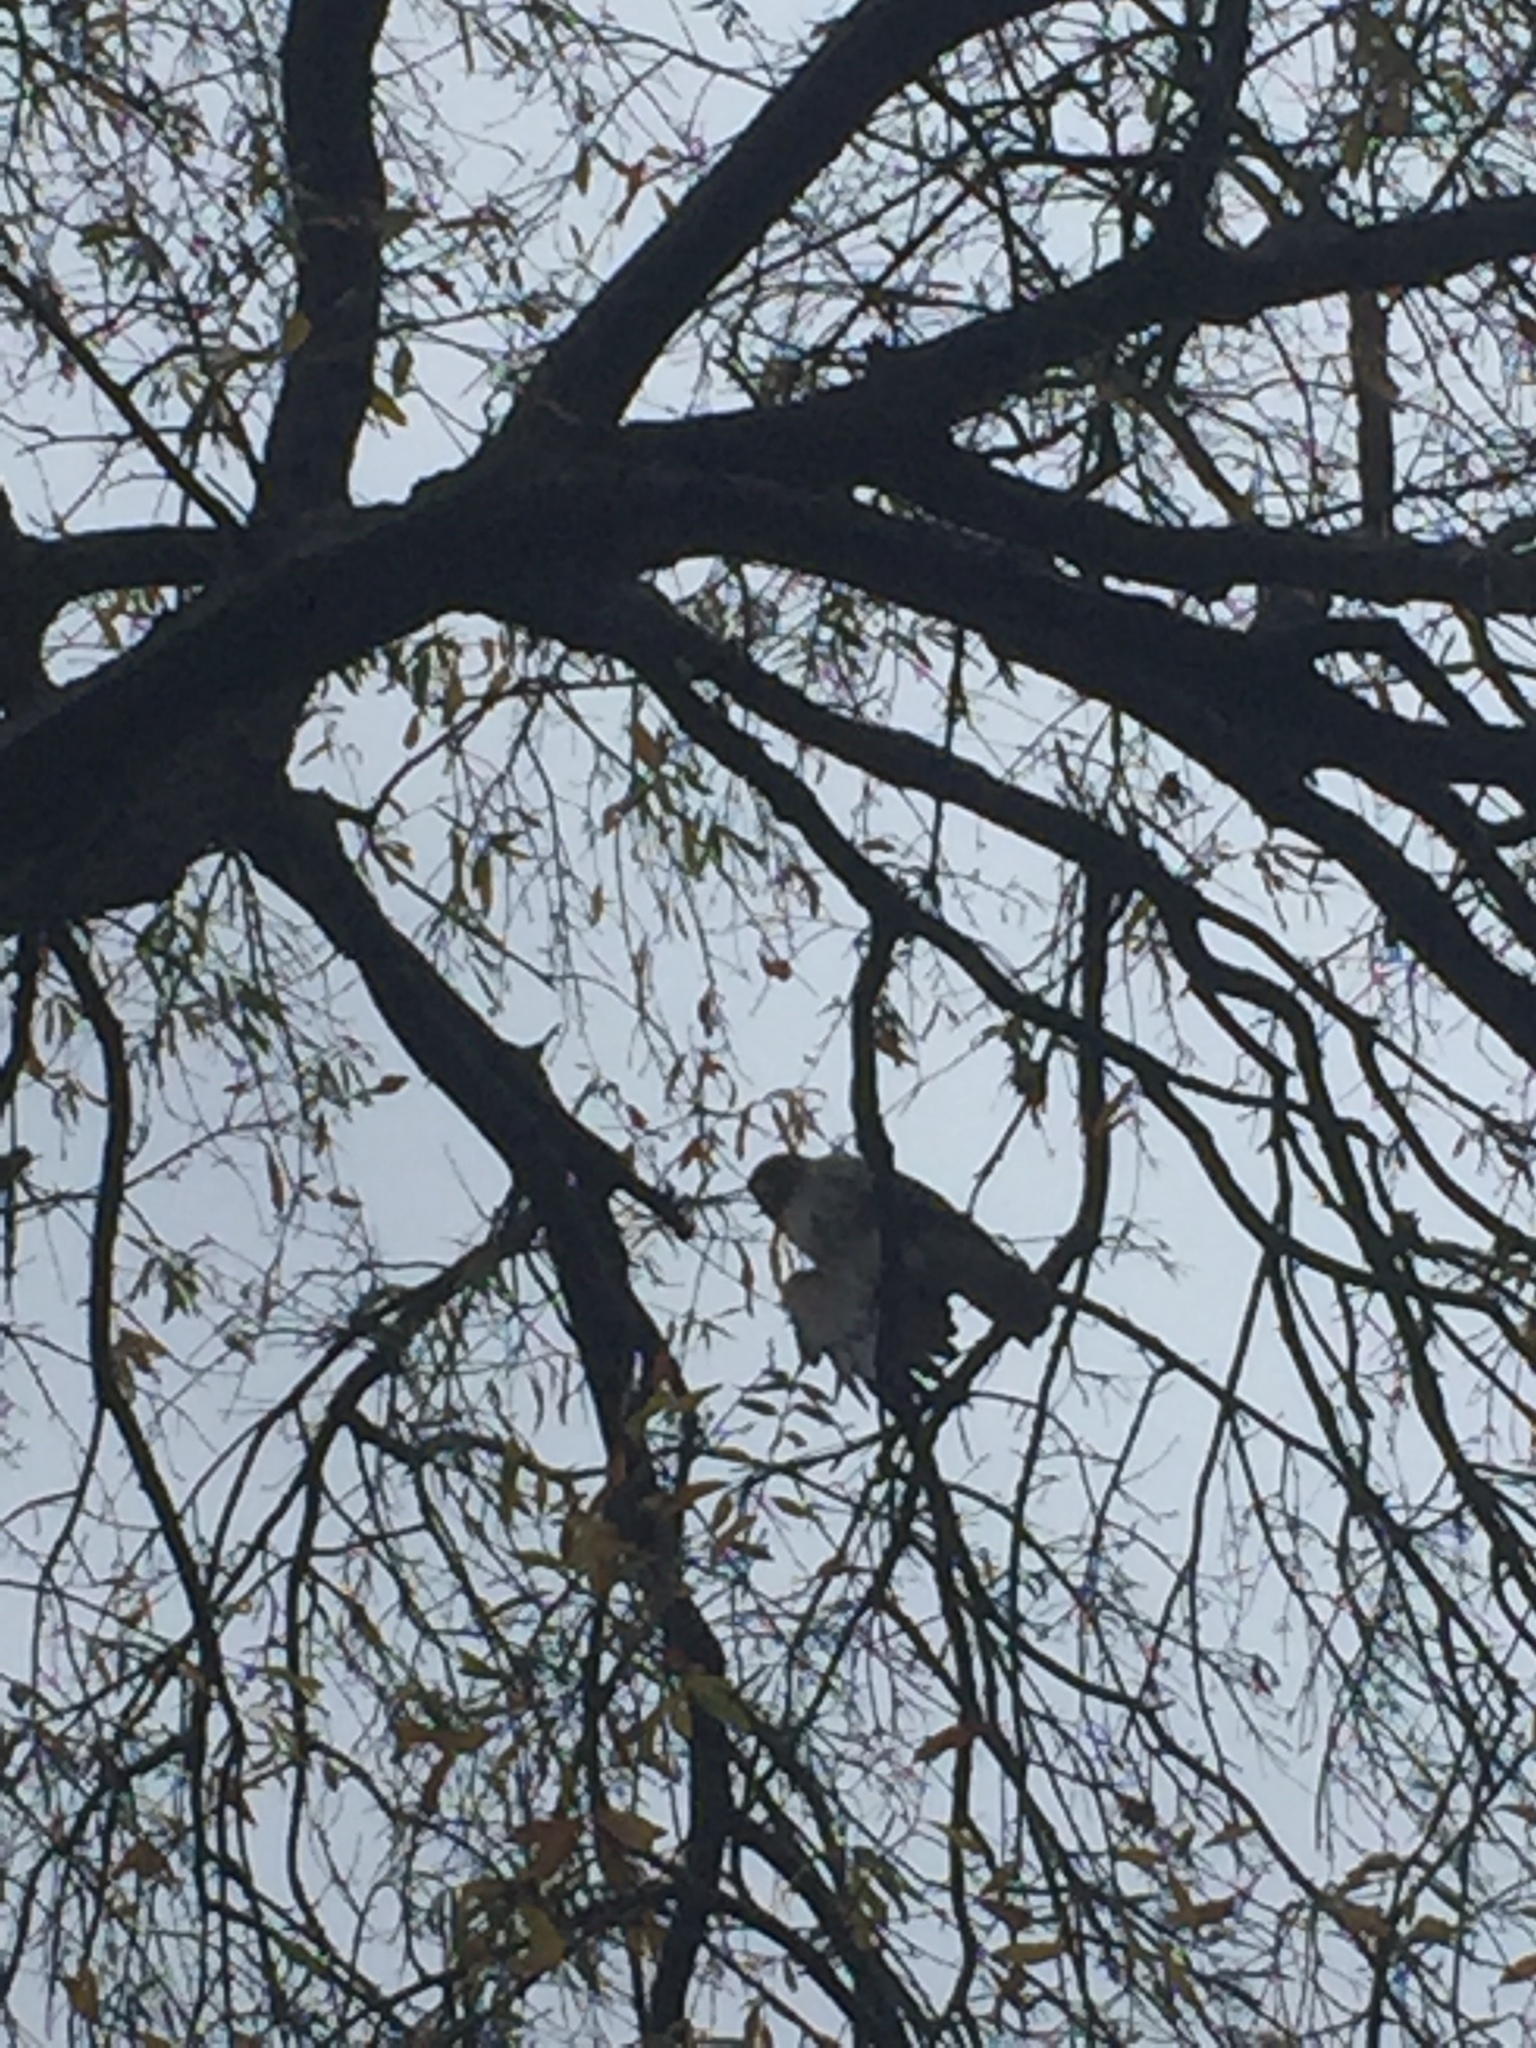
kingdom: Animalia
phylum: Chordata
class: Aves
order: Accipitriformes
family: Accipitridae
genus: Buteo
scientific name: Buteo jamaicensis
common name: Red-tailed hawk
